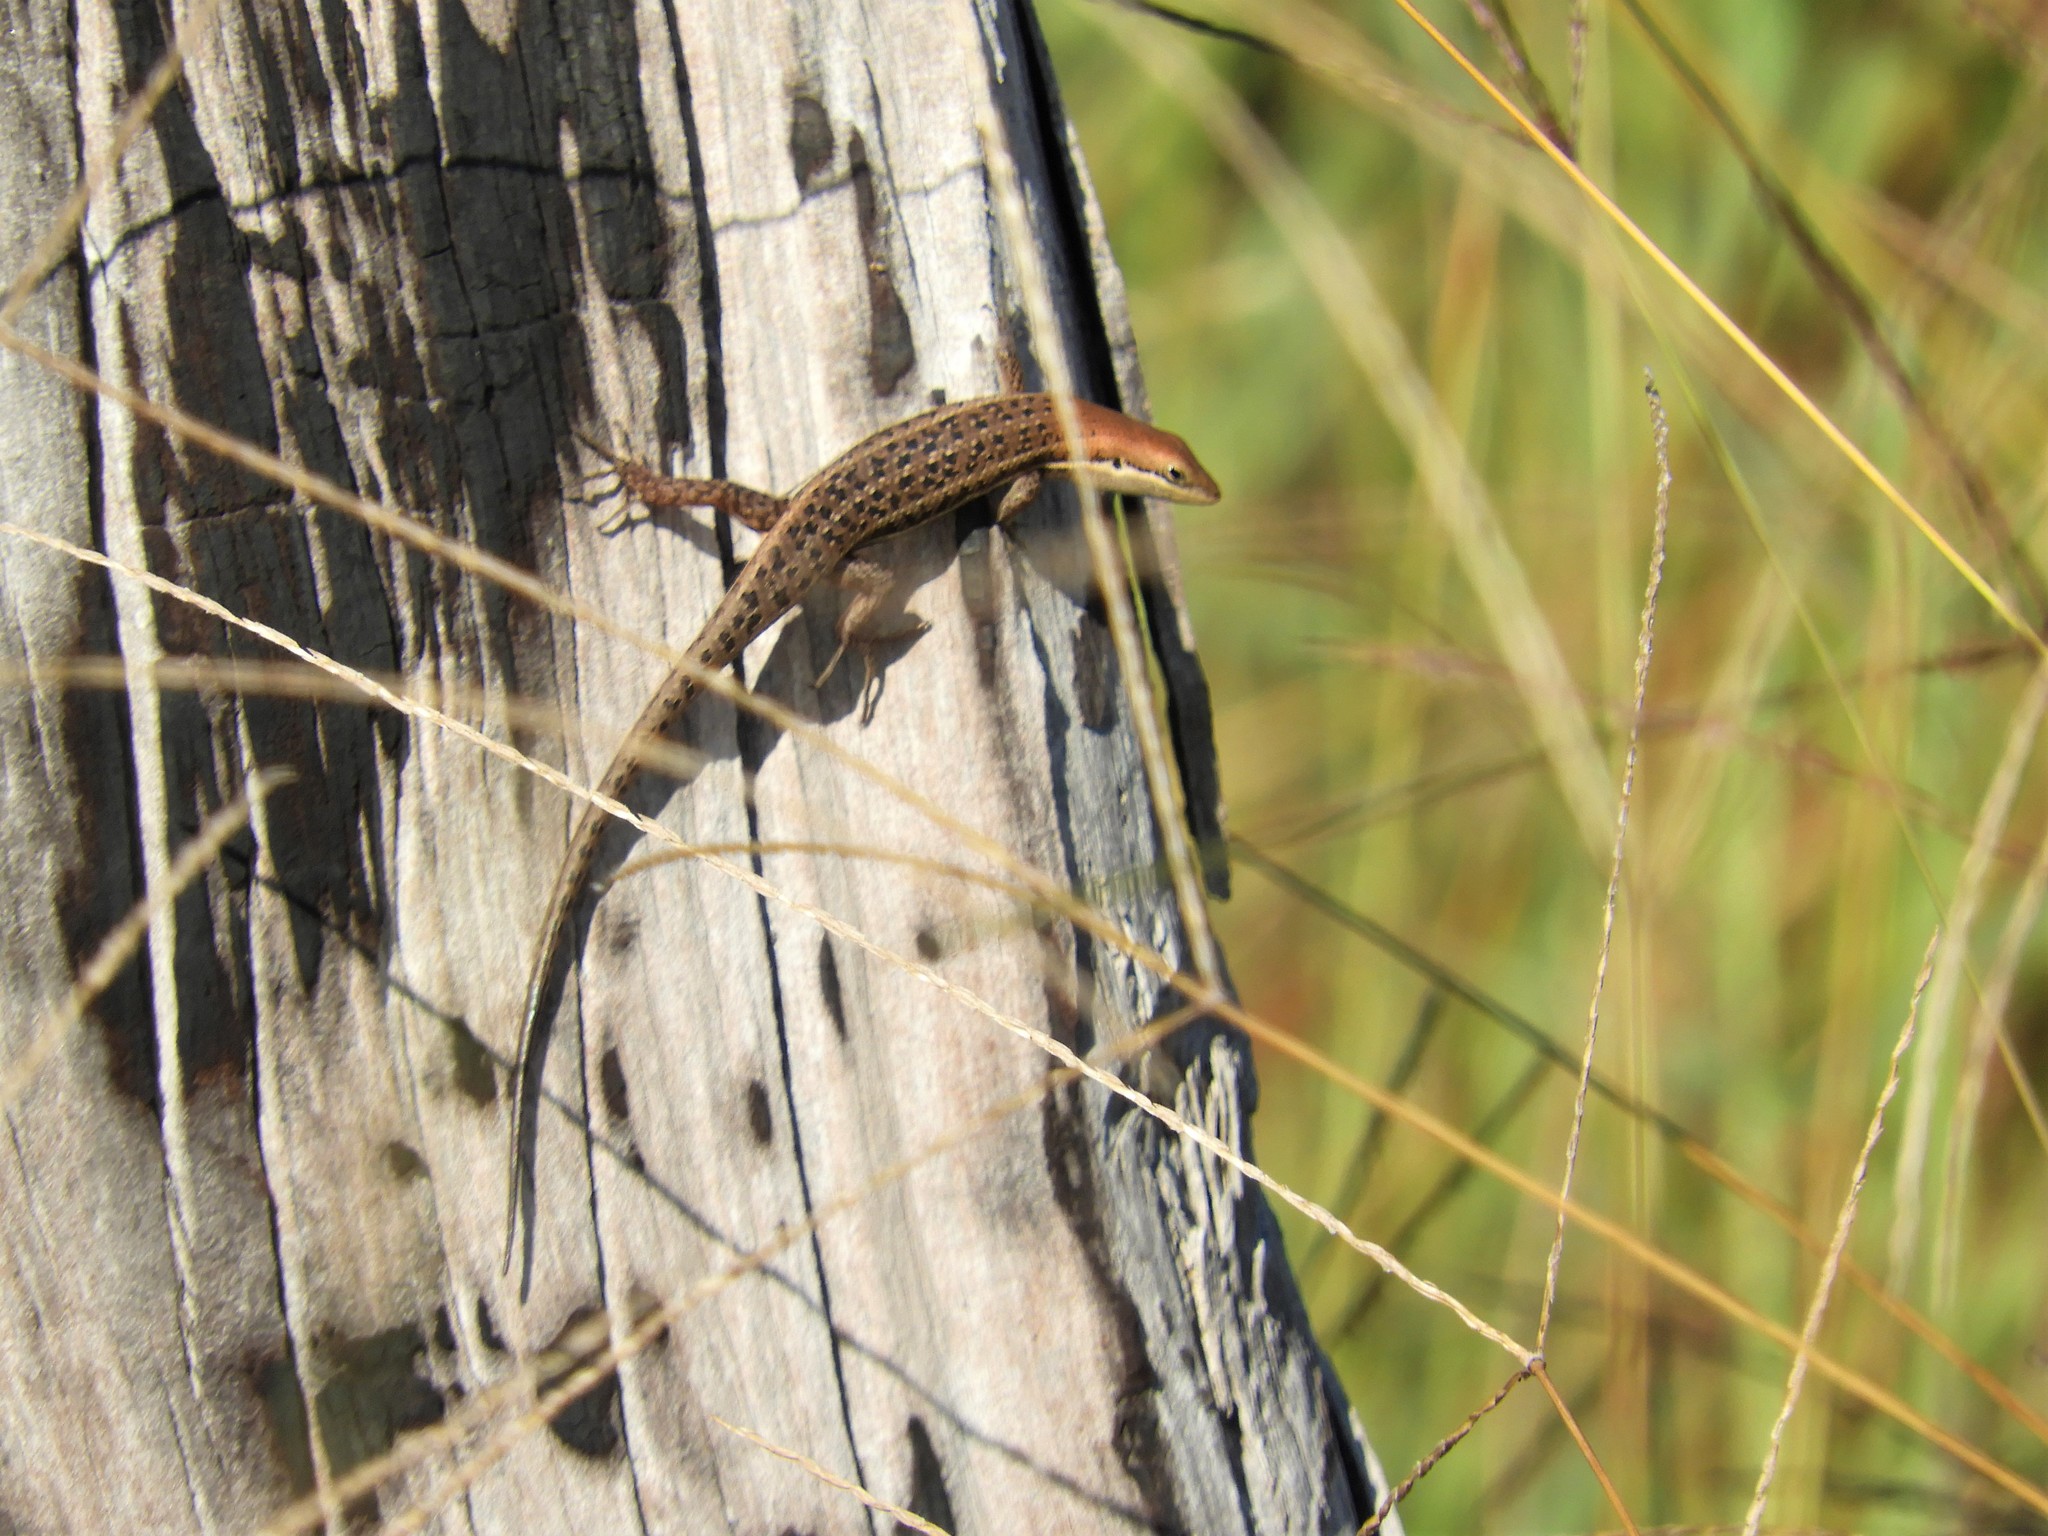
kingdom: Animalia
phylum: Chordata
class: Squamata
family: Scincidae
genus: Trachylepis
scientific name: Trachylepis varia
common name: Eastern variable skink
